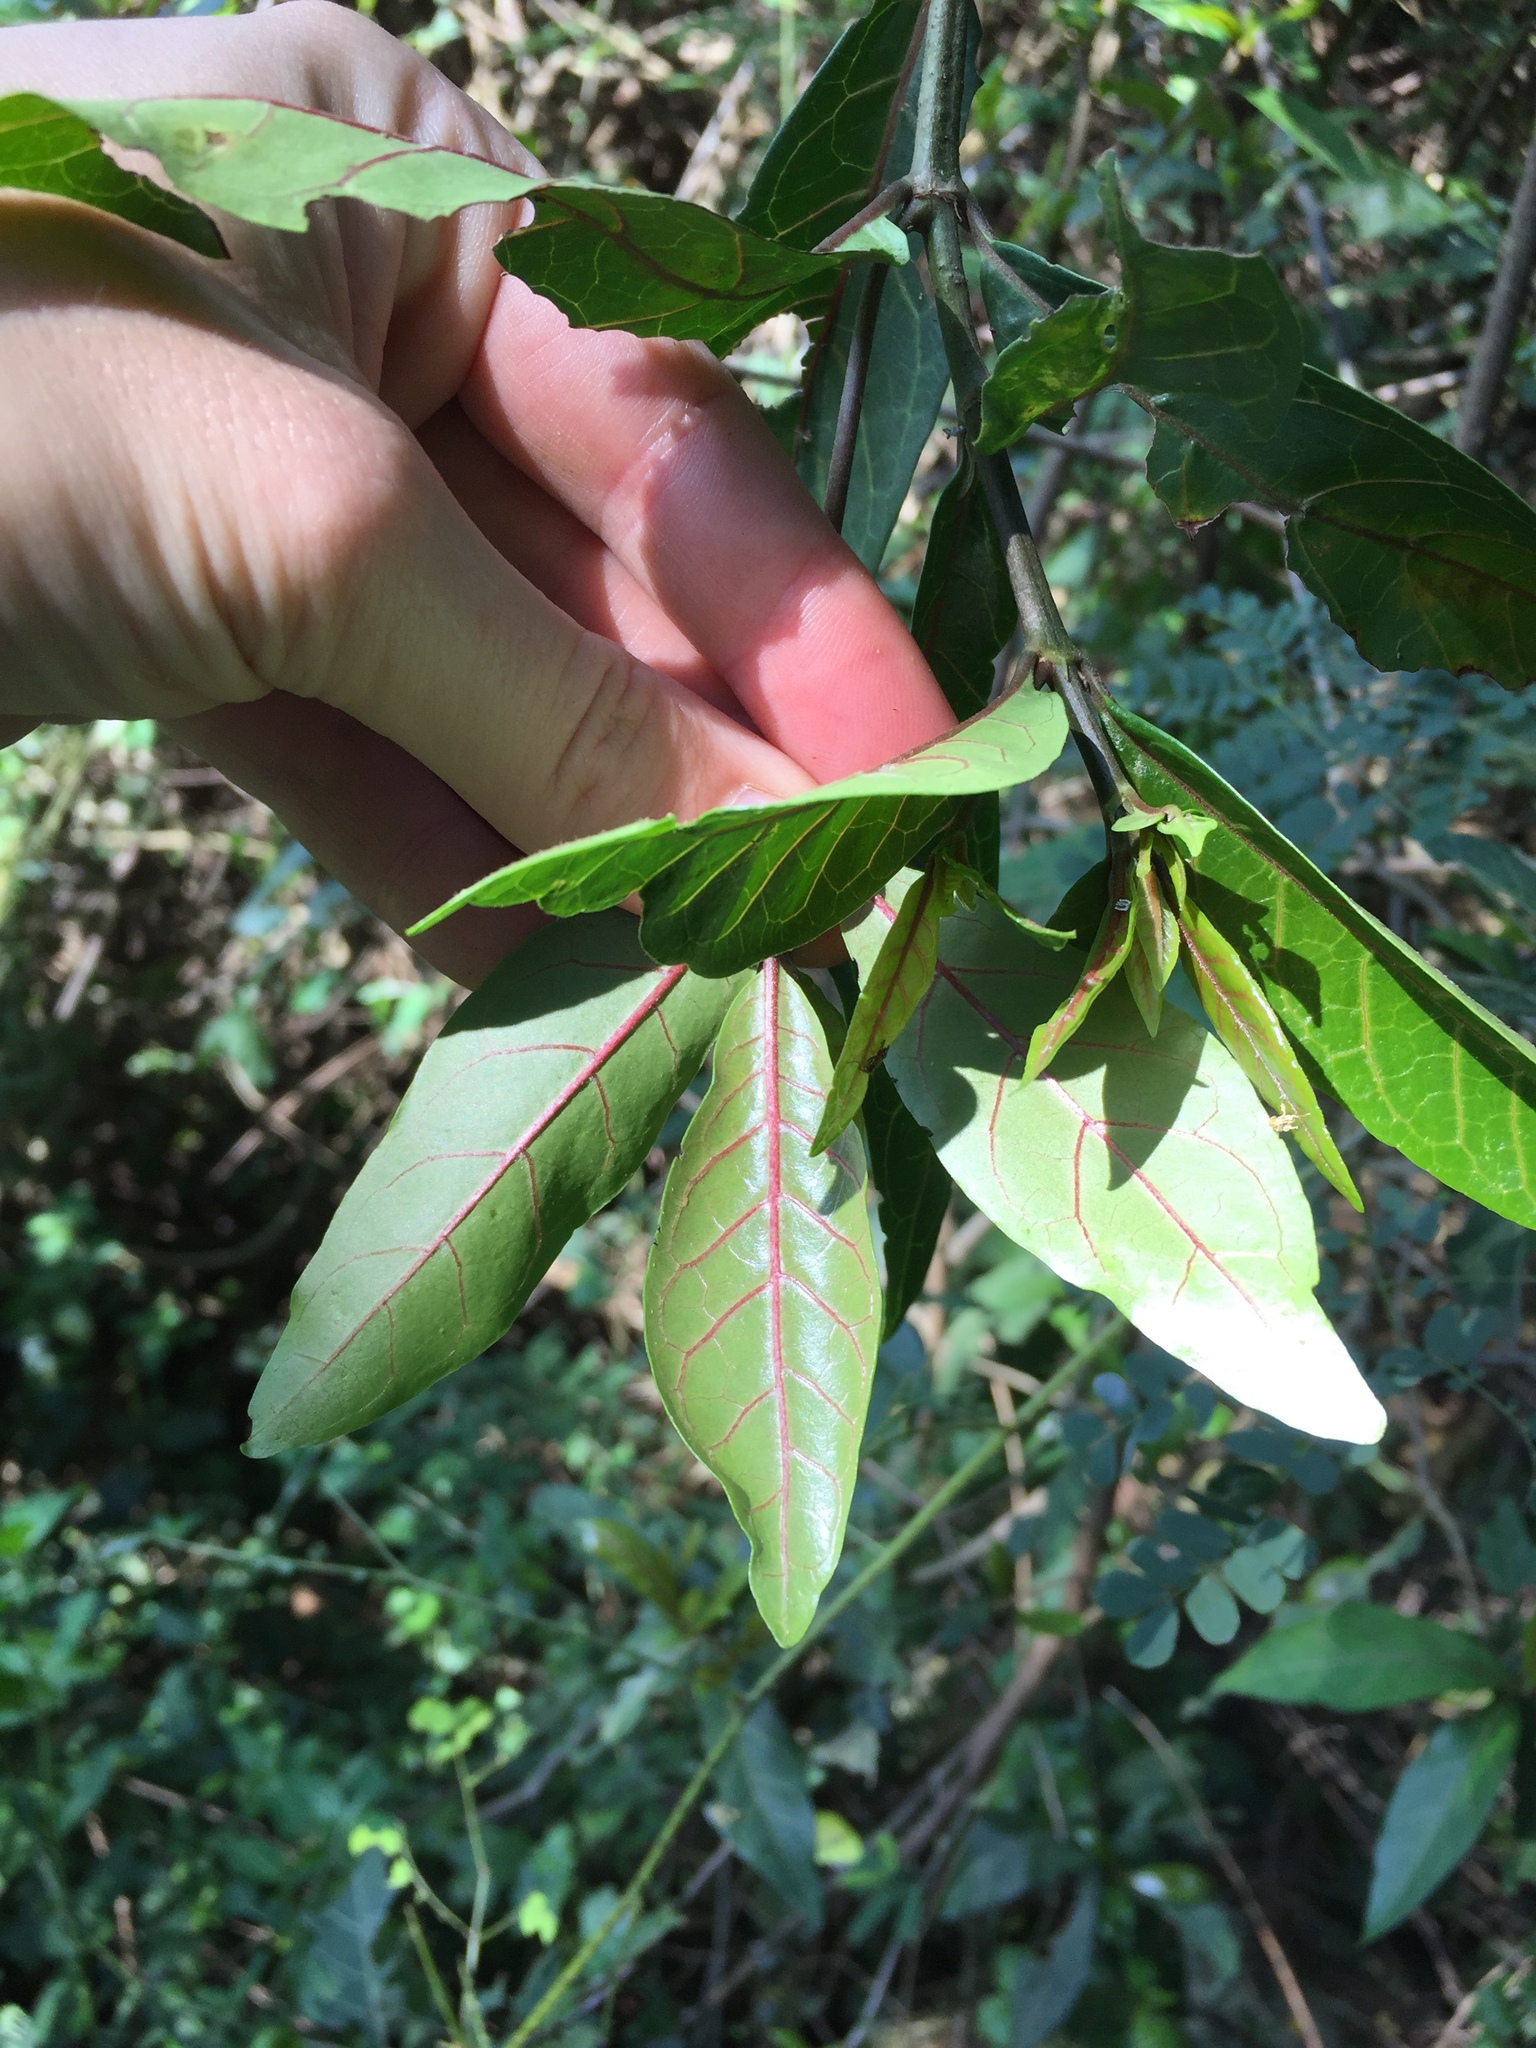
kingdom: Plantae
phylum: Tracheophyta
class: Magnoliopsida
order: Gentianales
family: Rubiaceae
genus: Rothmannia
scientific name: Rothmannia globosa
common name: September bells
